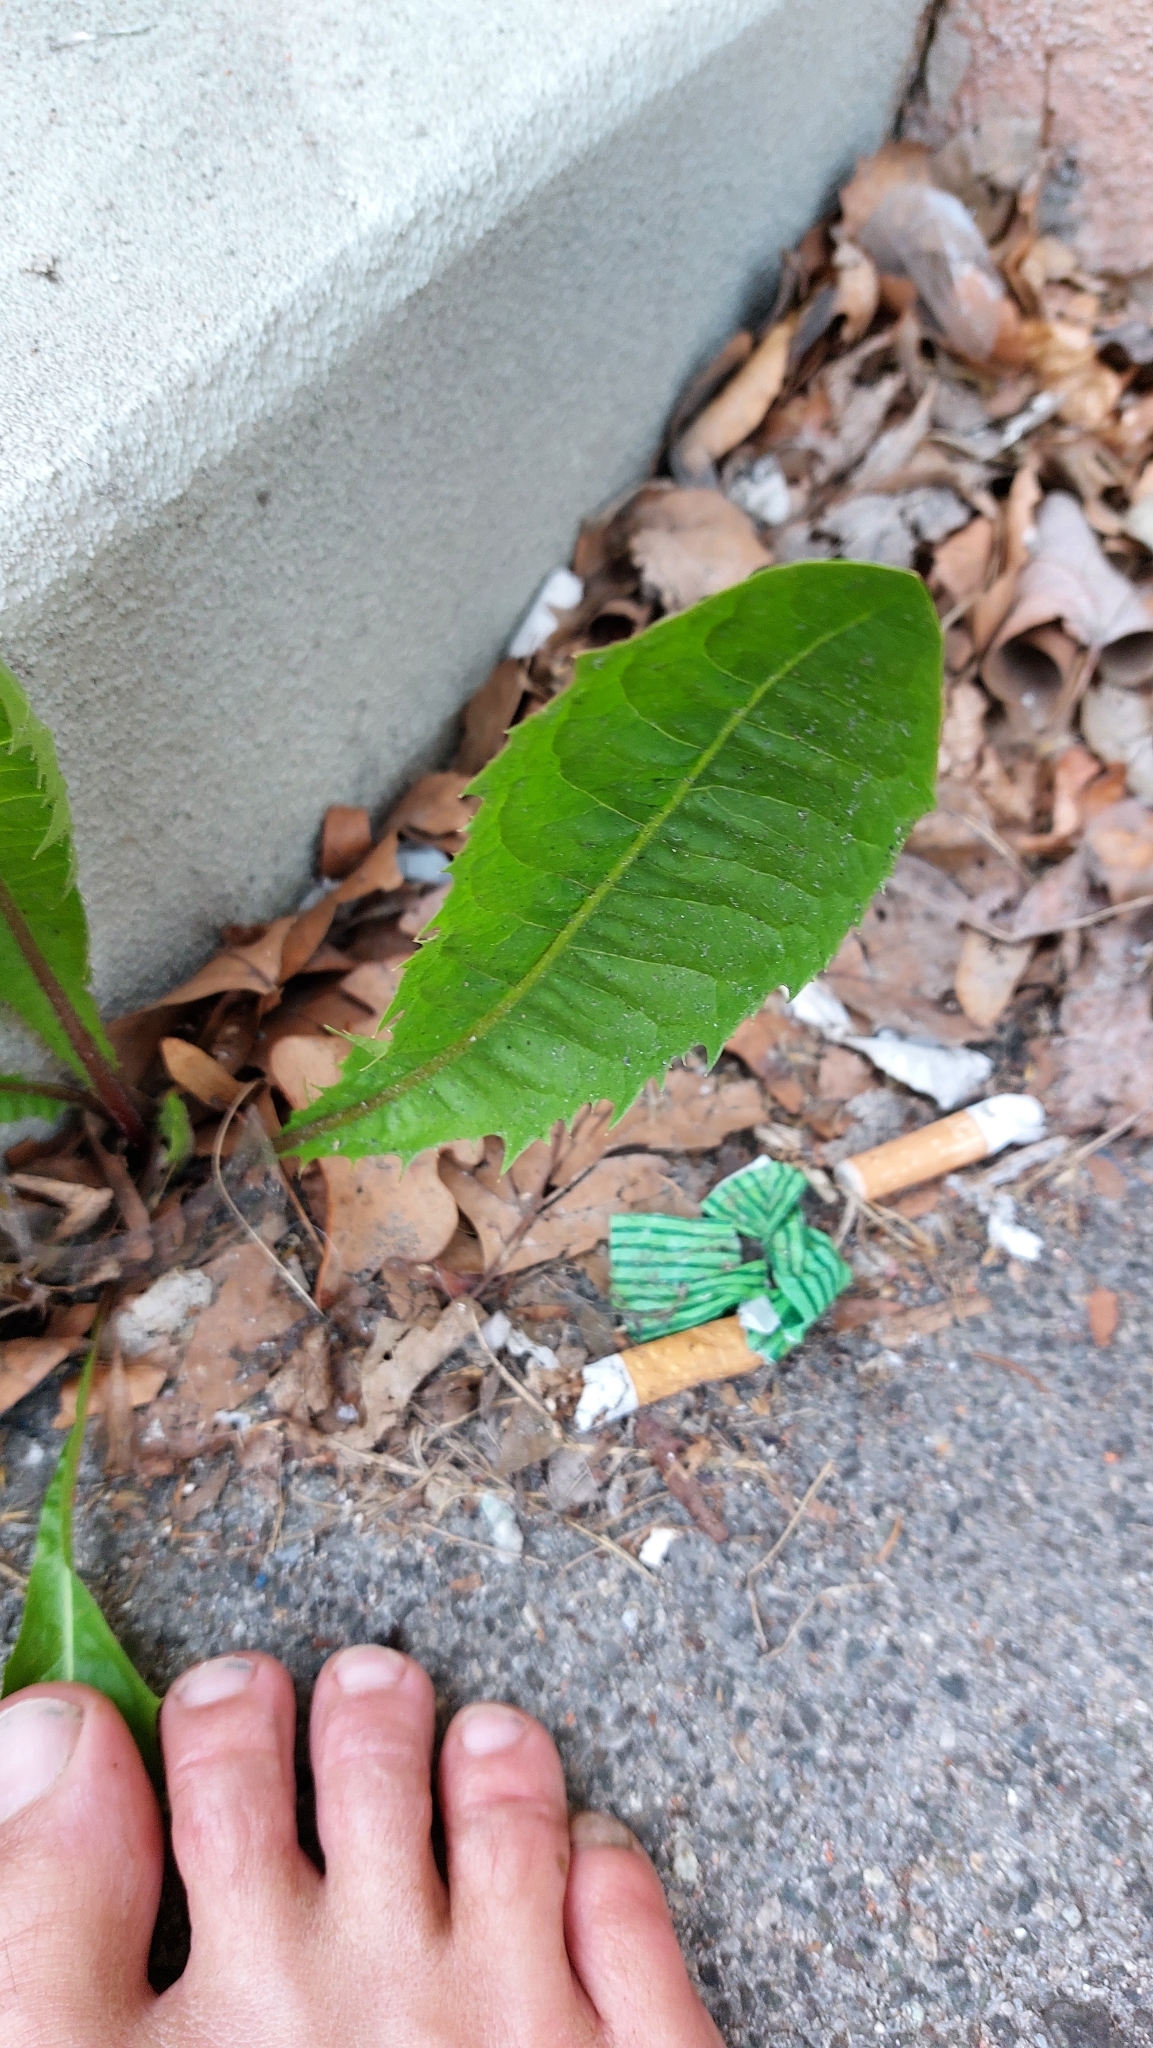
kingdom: Plantae
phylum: Tracheophyta
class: Magnoliopsida
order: Asterales
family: Asteraceae
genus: Taraxacum
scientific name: Taraxacum
